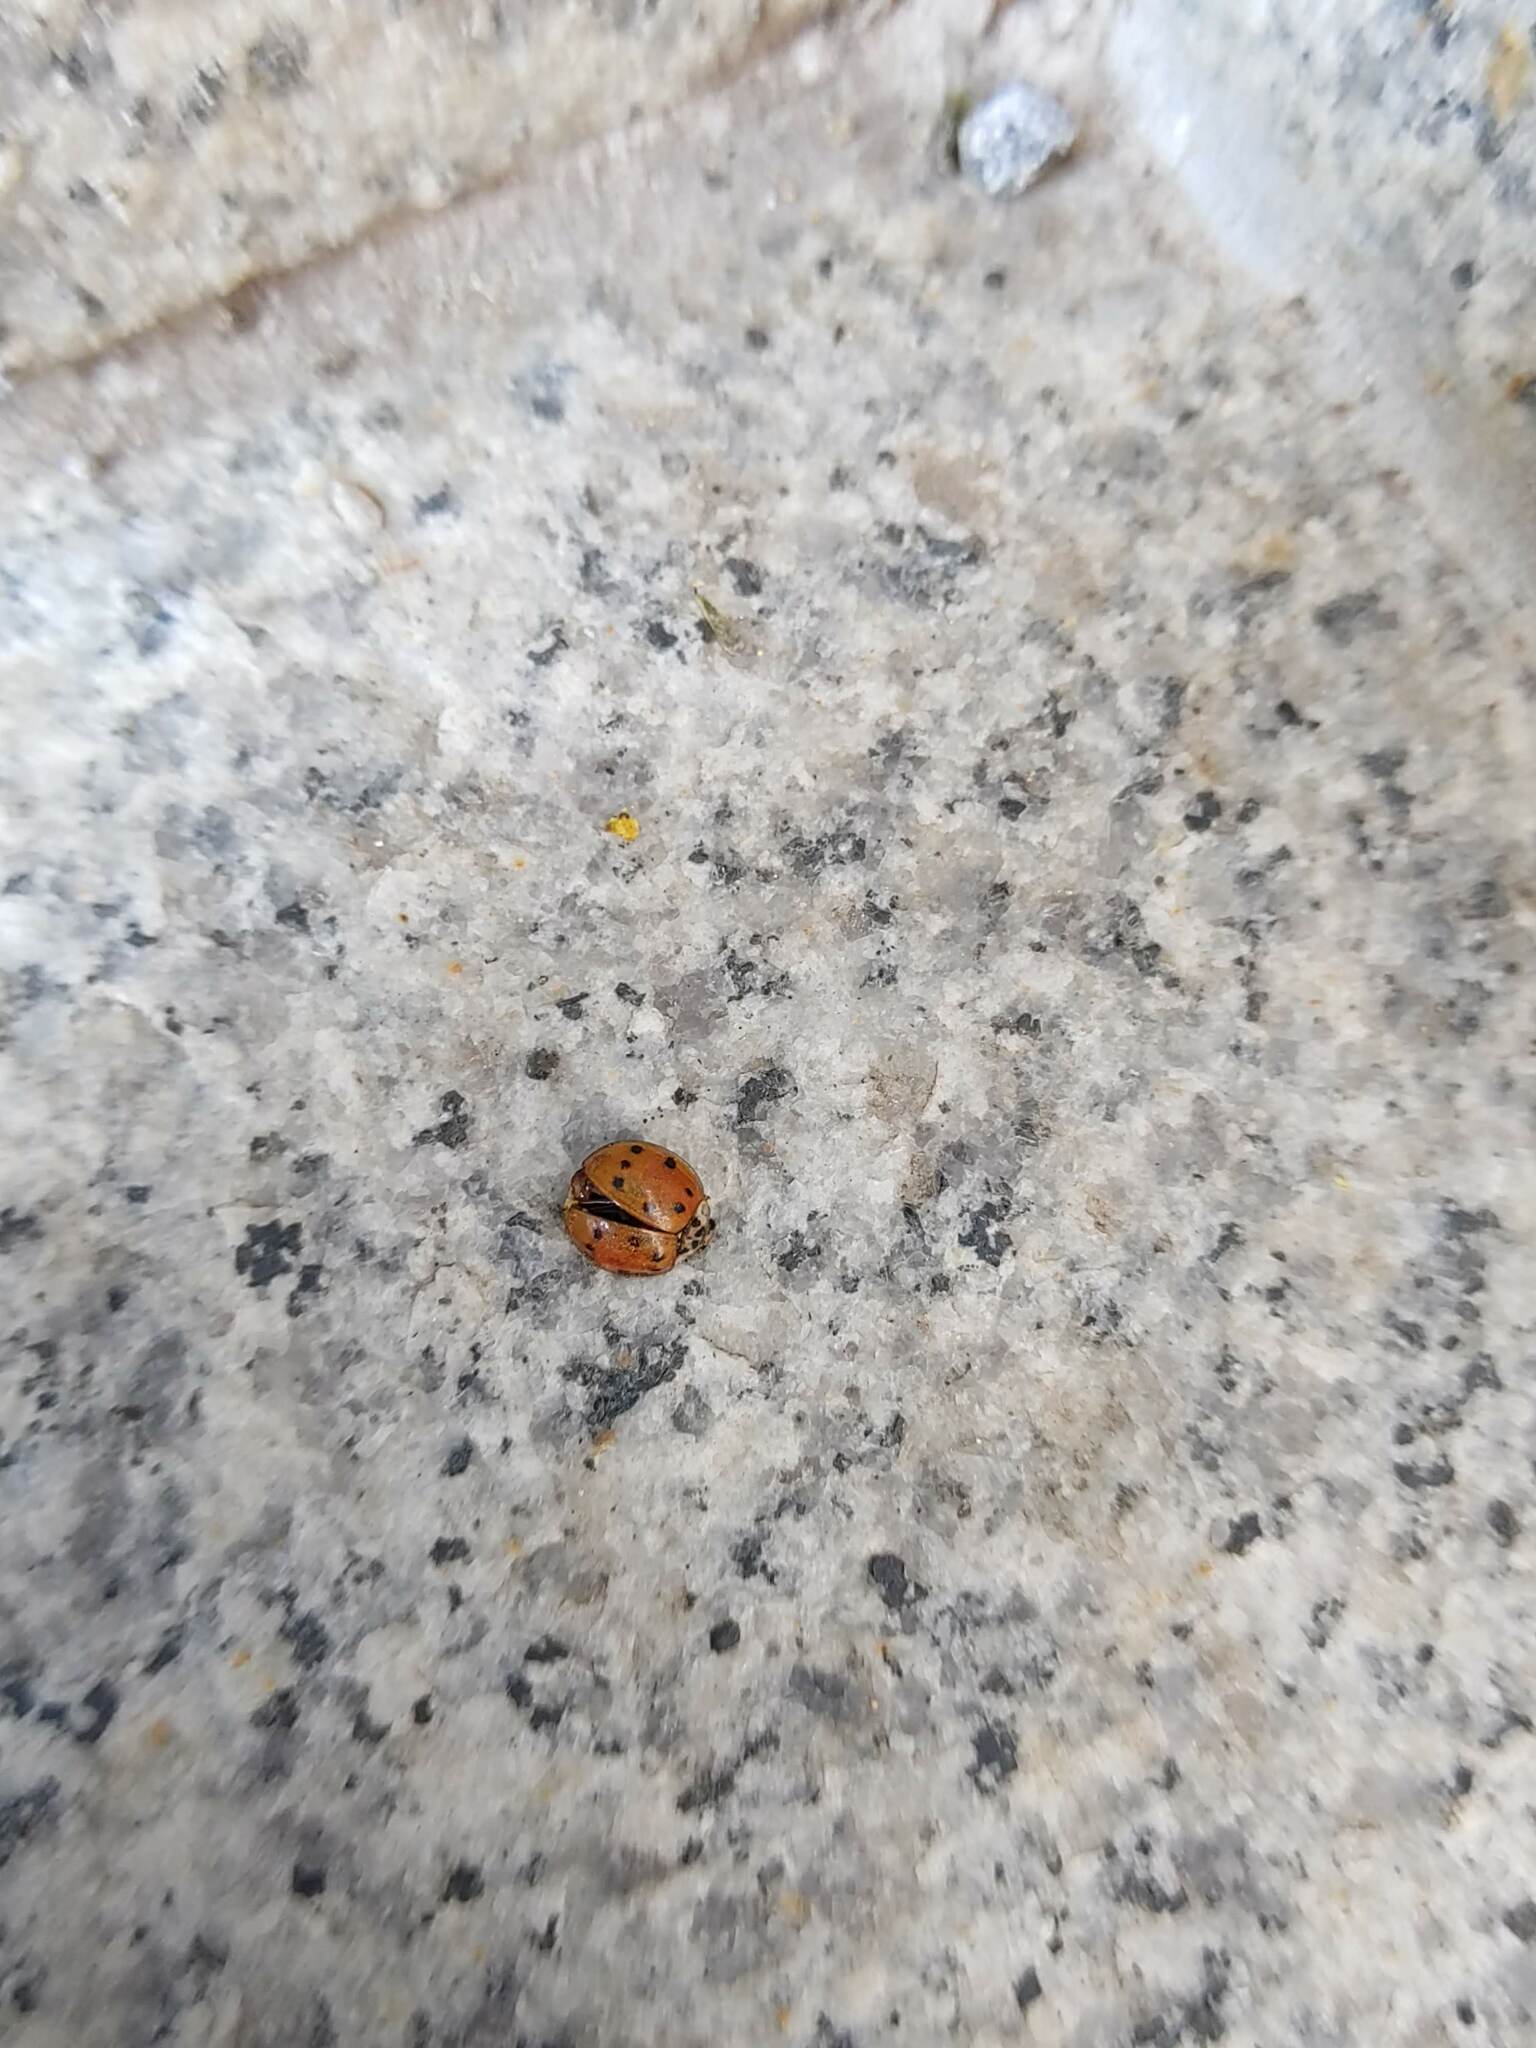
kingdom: Animalia
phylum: Arthropoda
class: Insecta
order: Coleoptera
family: Coccinellidae
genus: Harmonia
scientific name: Harmonia axyridis
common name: Harlequin ladybird
